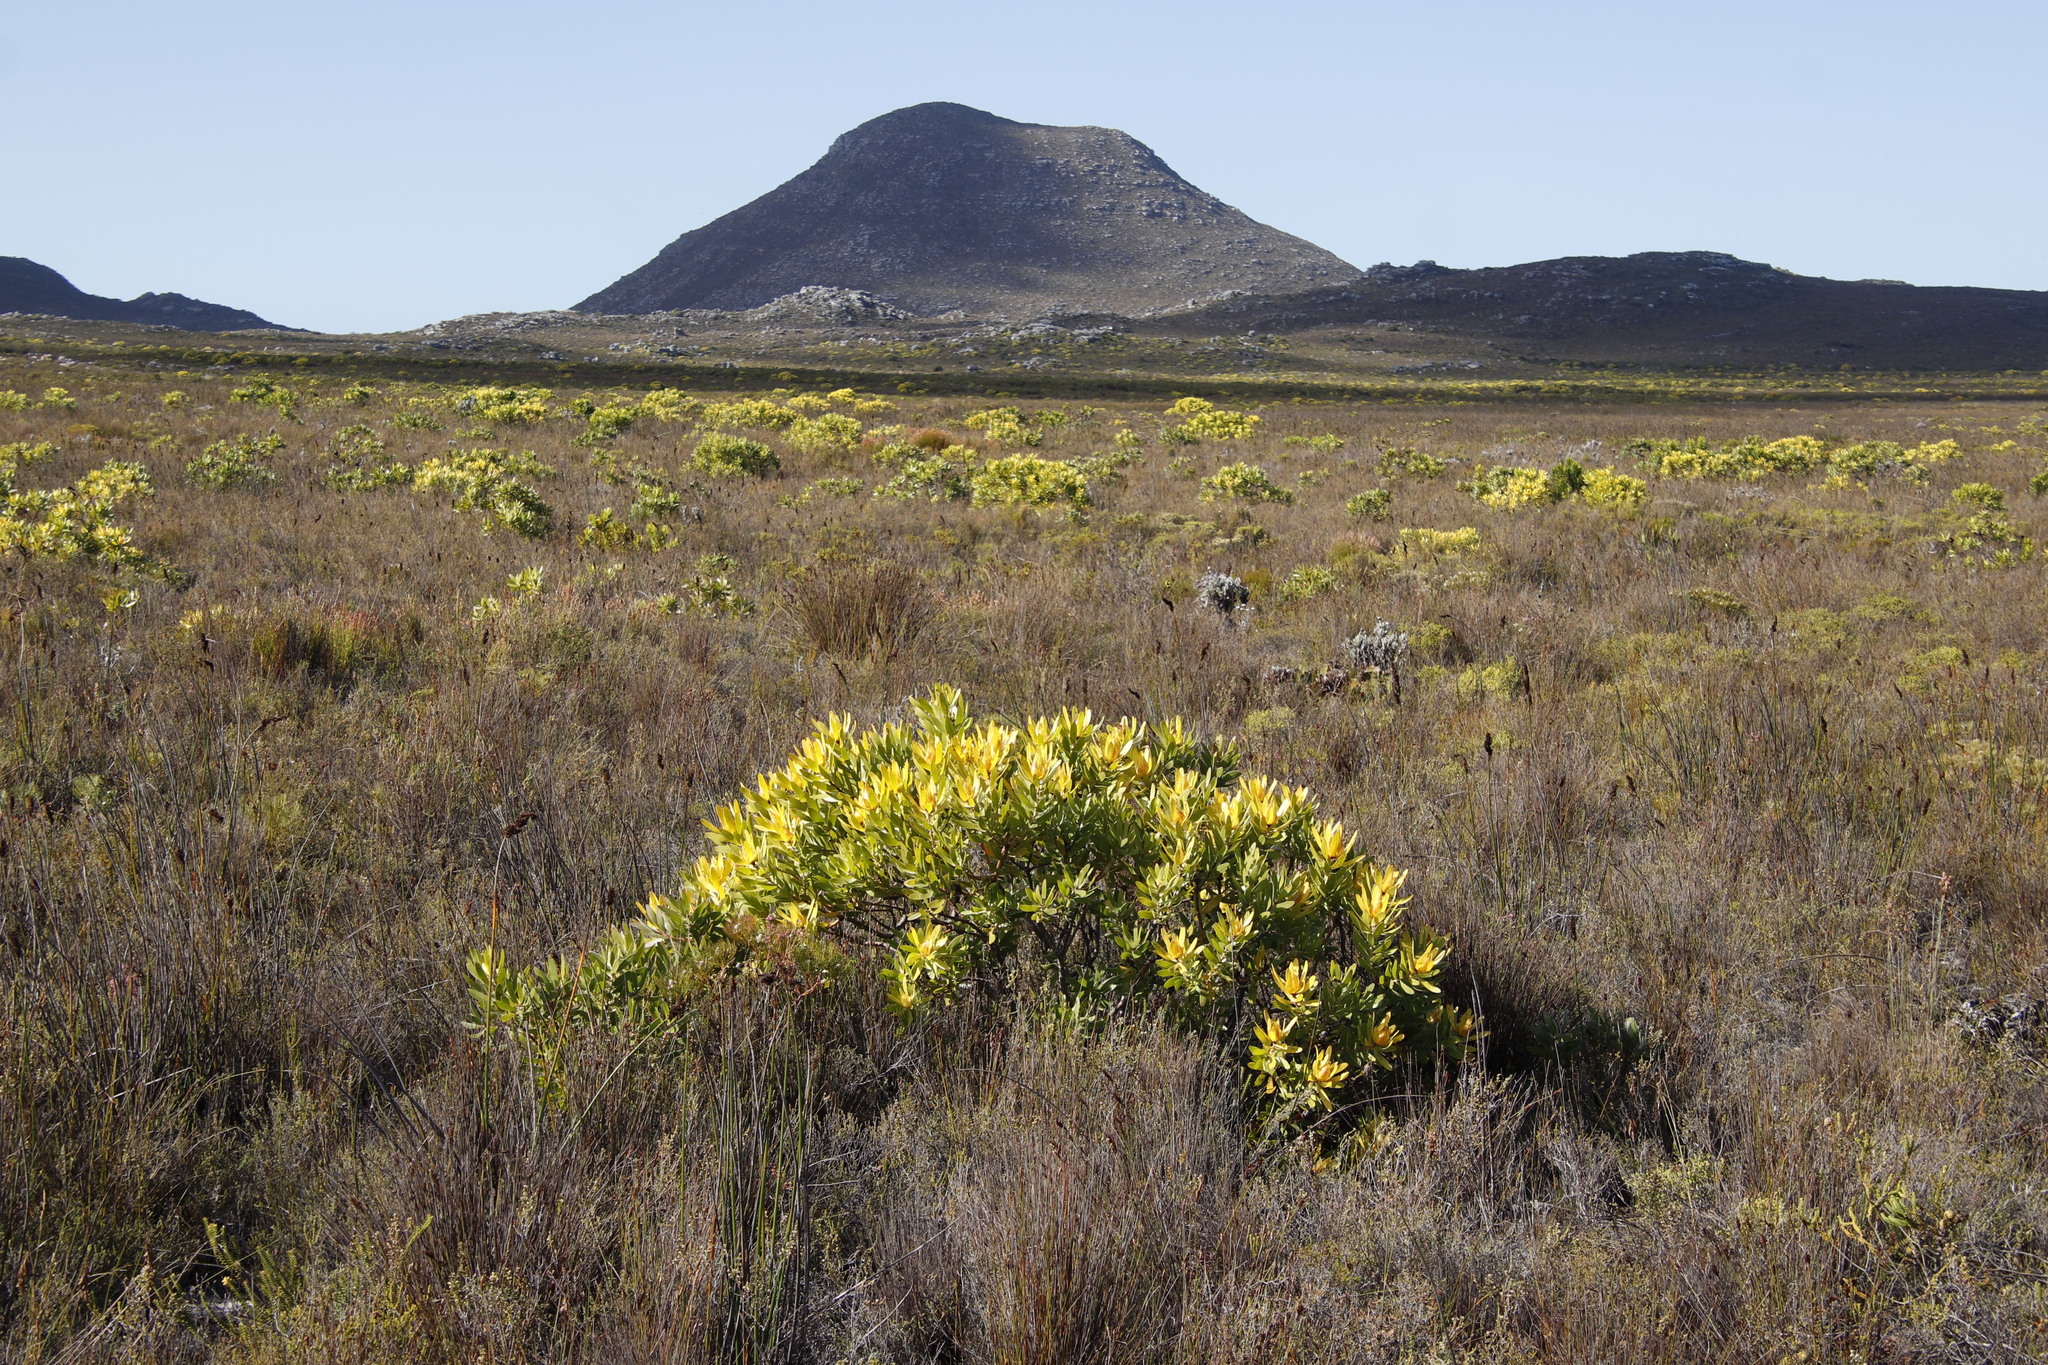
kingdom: Plantae
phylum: Tracheophyta
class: Magnoliopsida
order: Proteales
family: Proteaceae
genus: Leucadendron
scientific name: Leucadendron laureolum
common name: Golden sunshinebush
